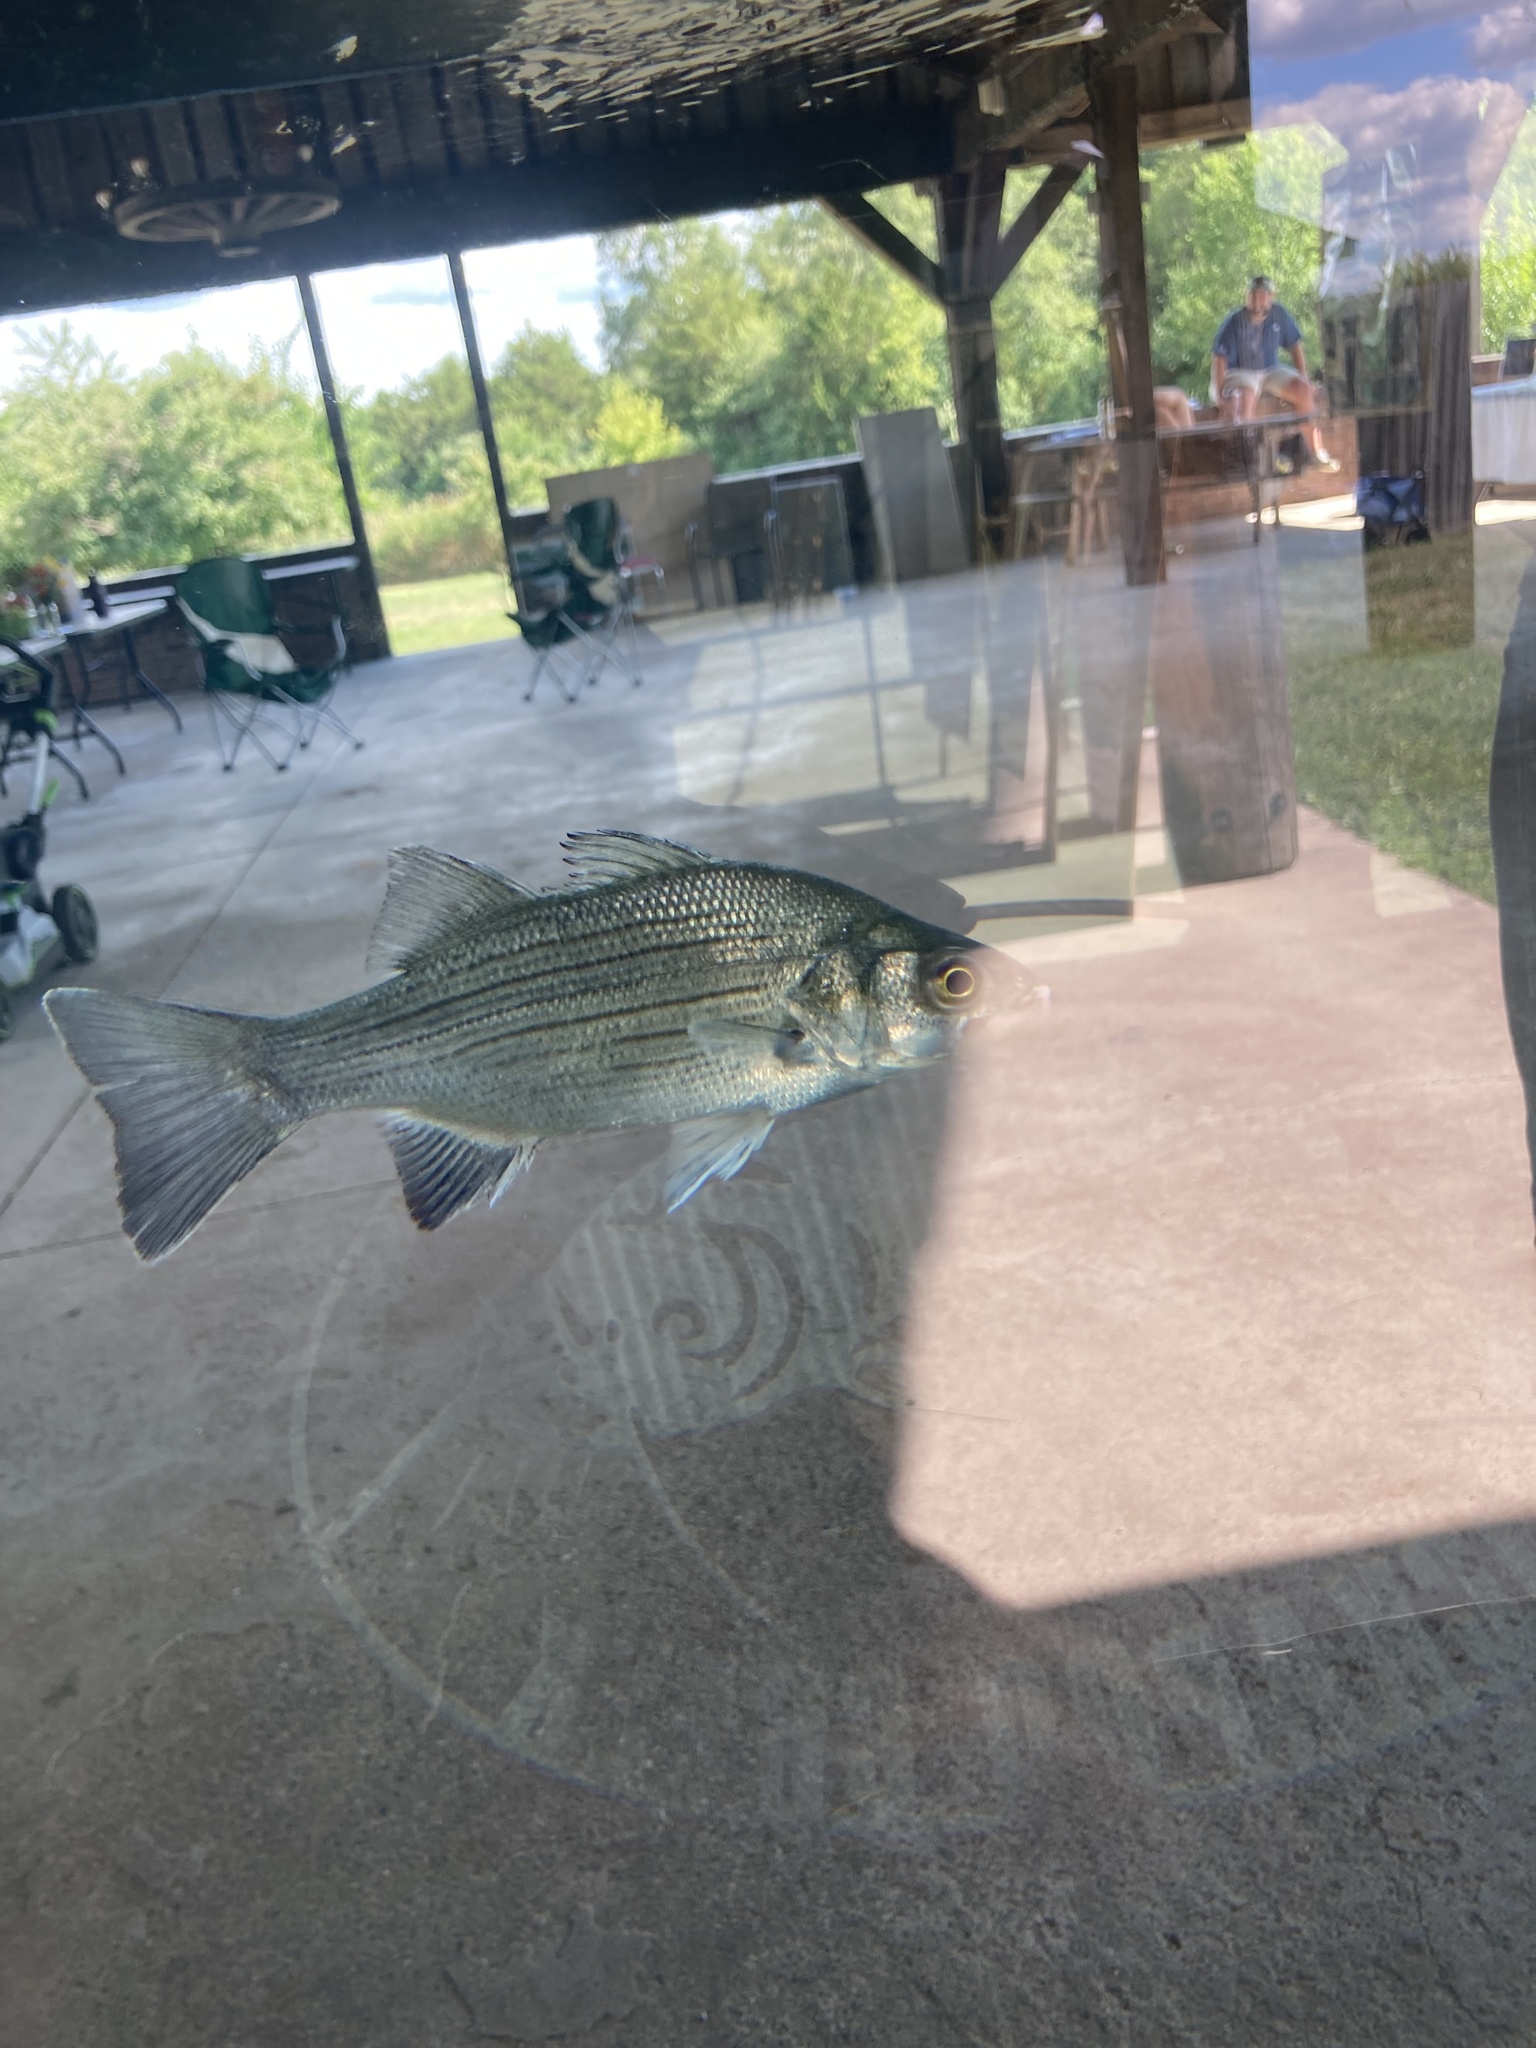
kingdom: Animalia
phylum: Chordata
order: Perciformes
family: Moronidae
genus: Morone
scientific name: Morone chrysops
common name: White bass
